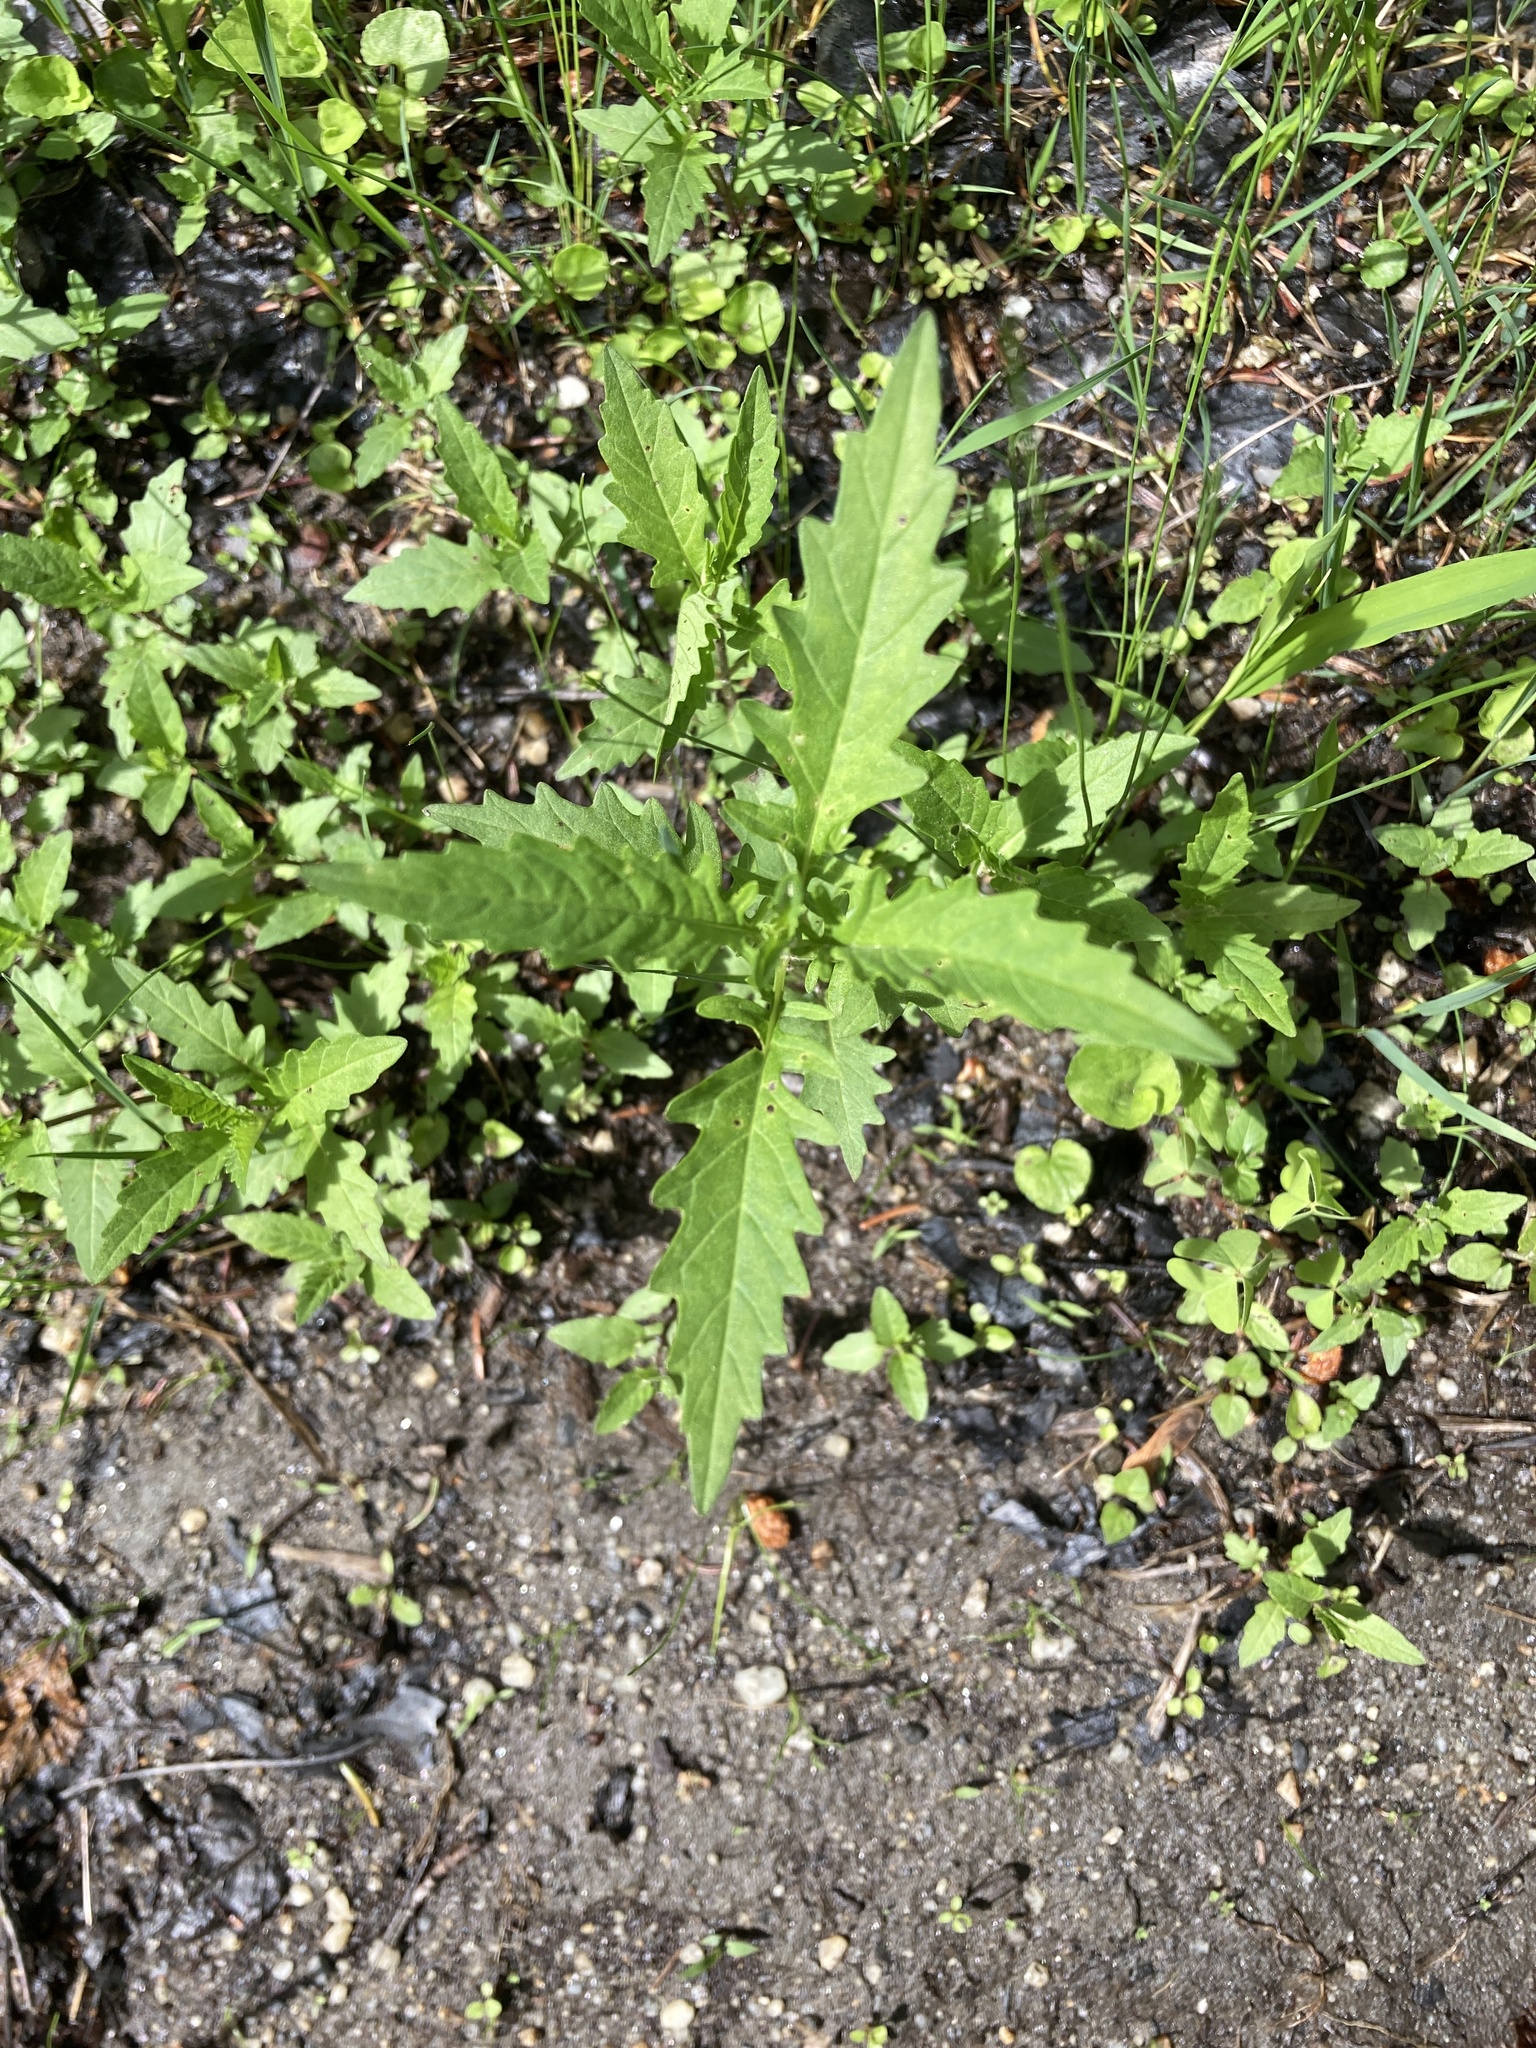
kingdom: Plantae
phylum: Tracheophyta
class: Magnoliopsida
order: Lamiales
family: Lamiaceae
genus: Lycopus
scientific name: Lycopus americanus
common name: American bugleweed
